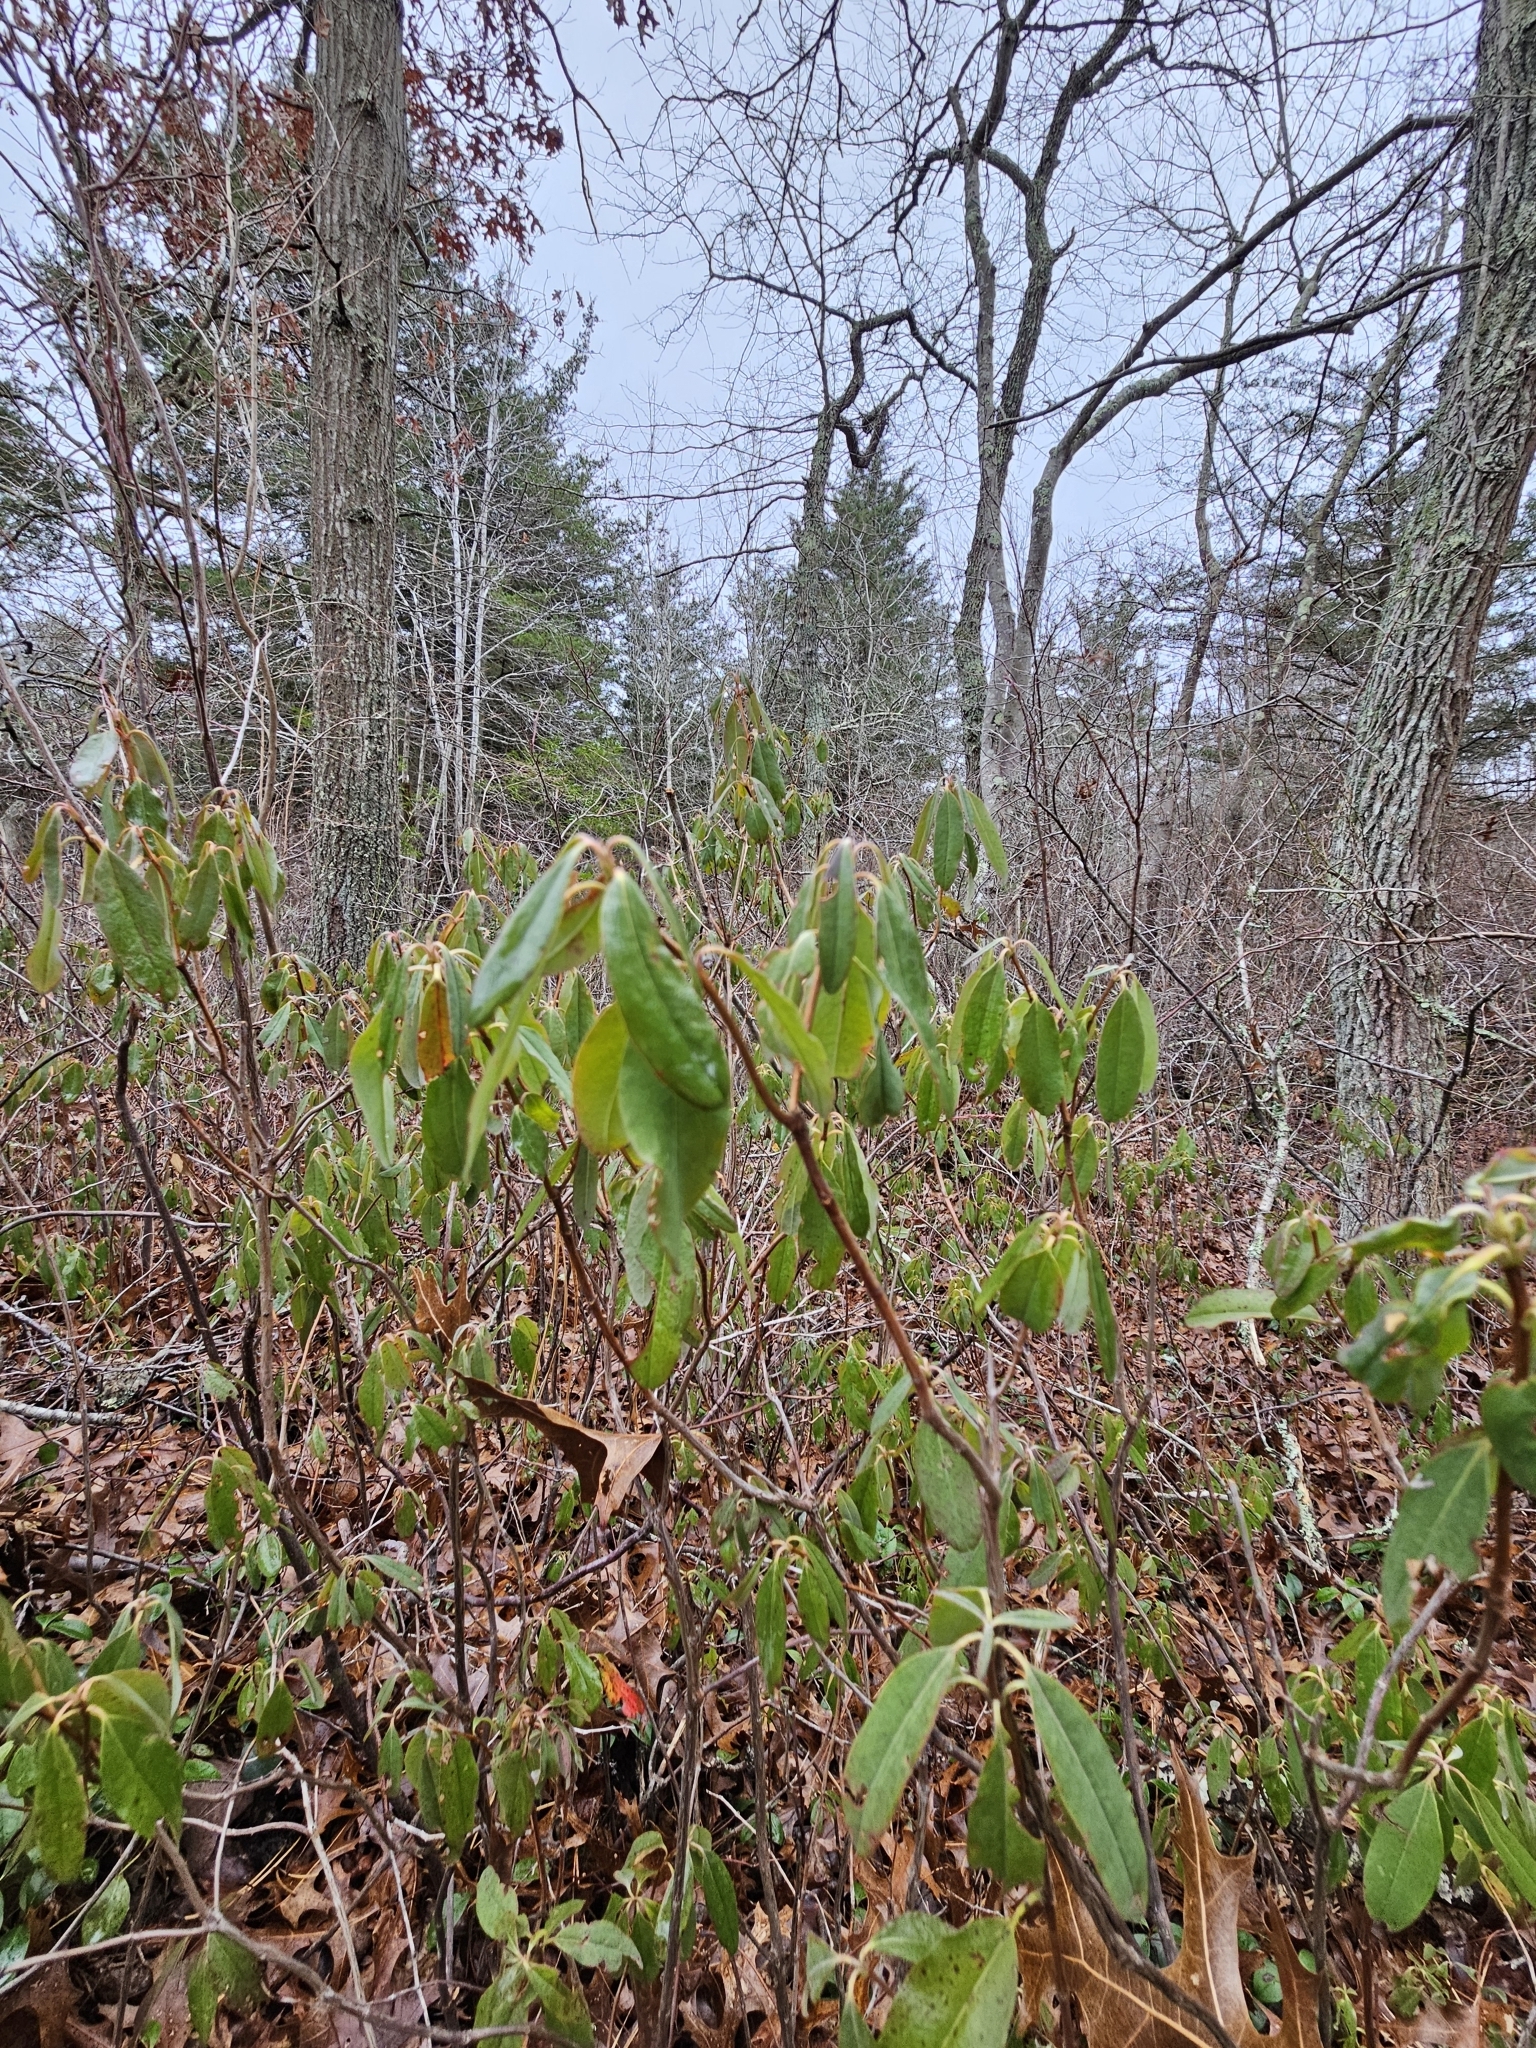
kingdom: Plantae
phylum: Tracheophyta
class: Magnoliopsida
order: Ericales
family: Ericaceae
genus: Kalmia
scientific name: Kalmia angustifolia
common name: Sheep-laurel
